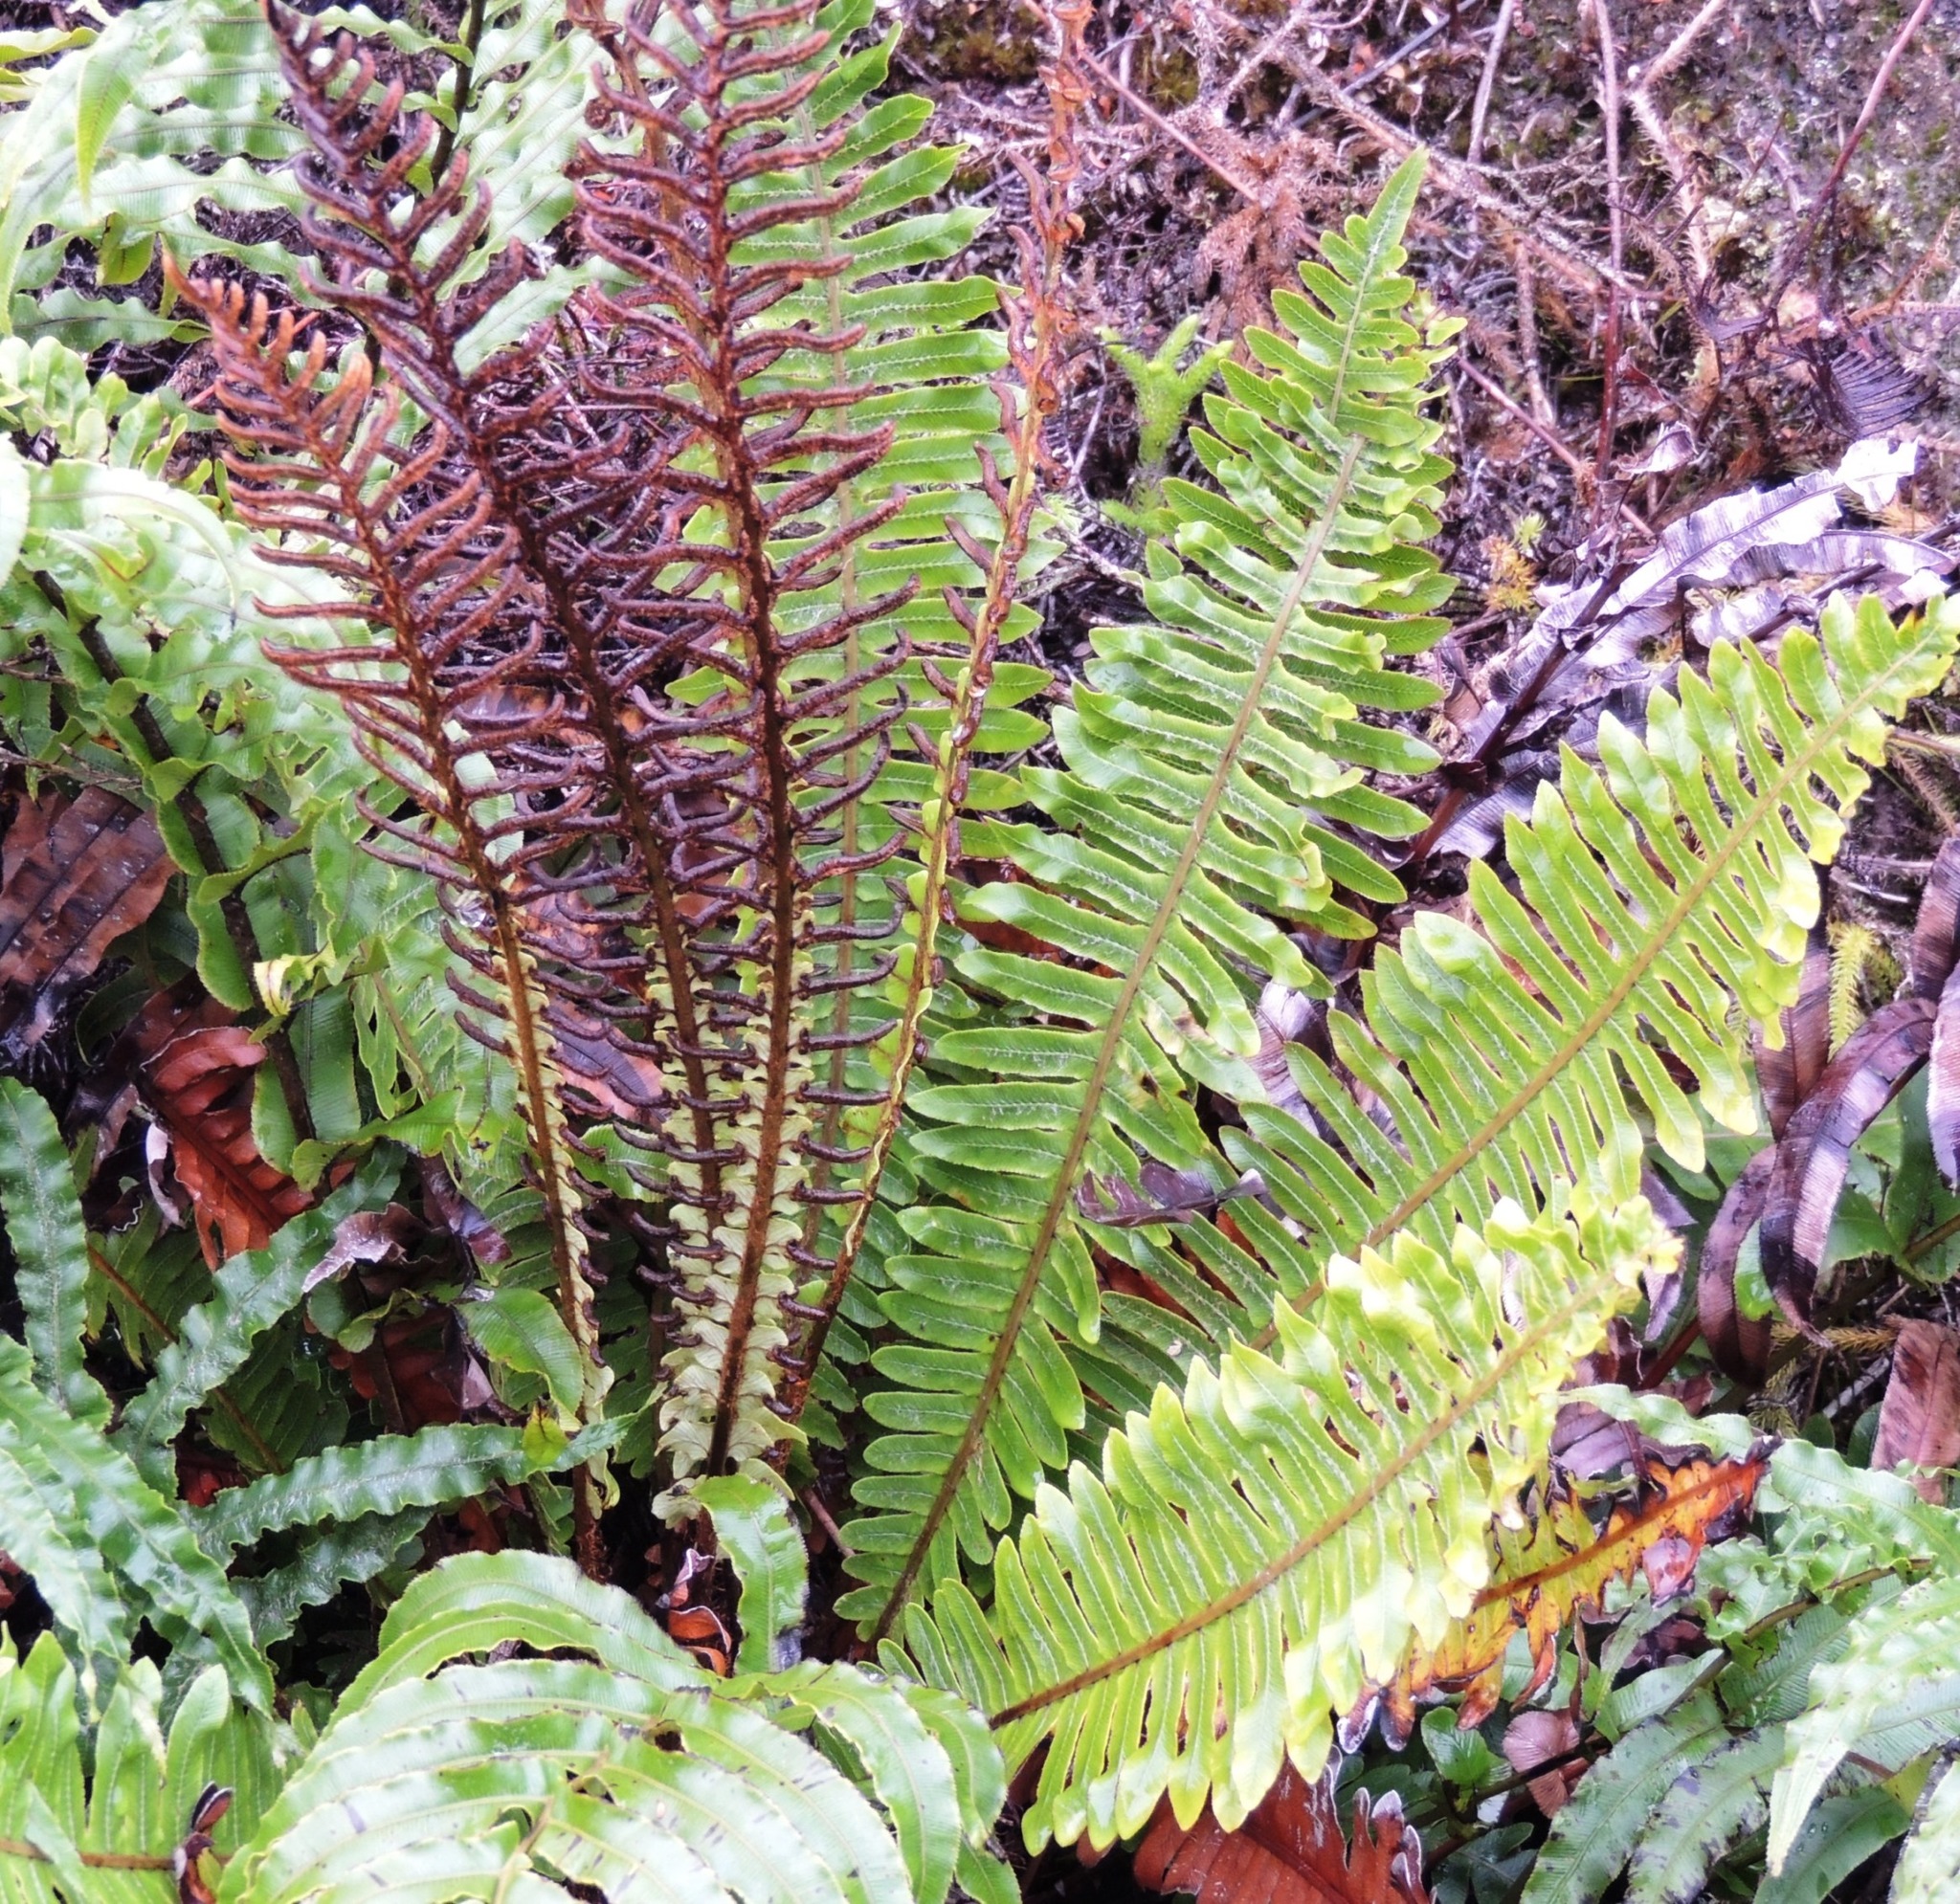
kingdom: Plantae
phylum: Tracheophyta
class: Polypodiopsida
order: Polypodiales
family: Blechnaceae
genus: Lomaria
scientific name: Lomaria discolor
